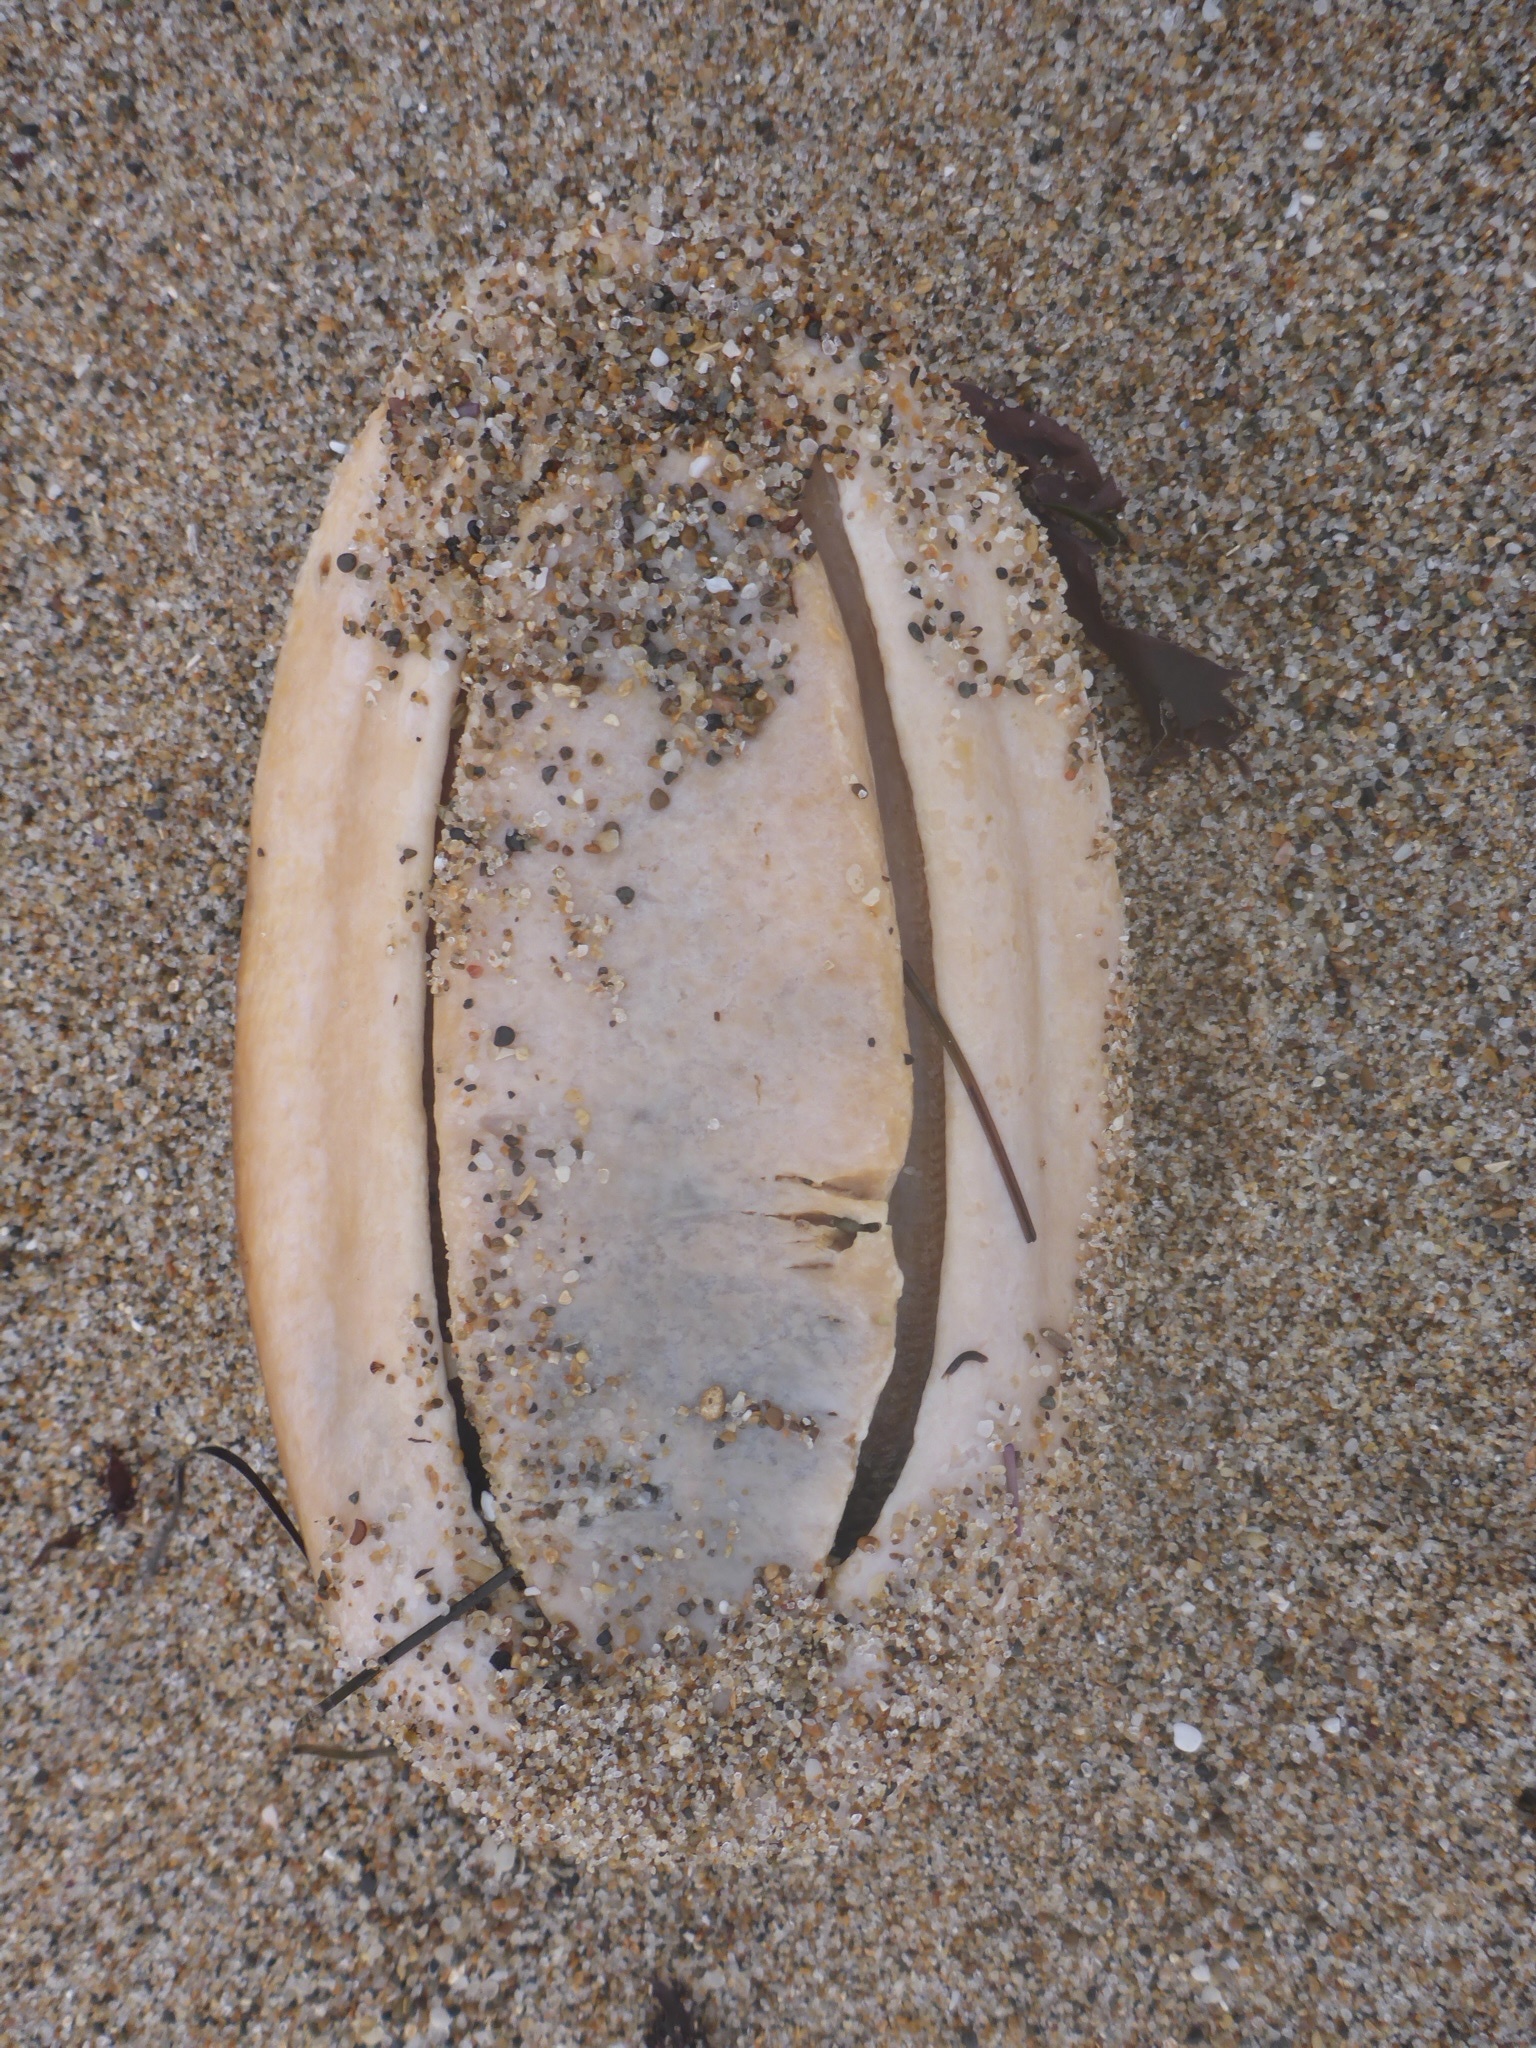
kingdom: Animalia
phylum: Mollusca
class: Polyplacophora
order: Chitonida
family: Acanthochitonidae
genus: Cryptochiton
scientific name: Cryptochiton stelleri
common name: Giant pacific chiton
